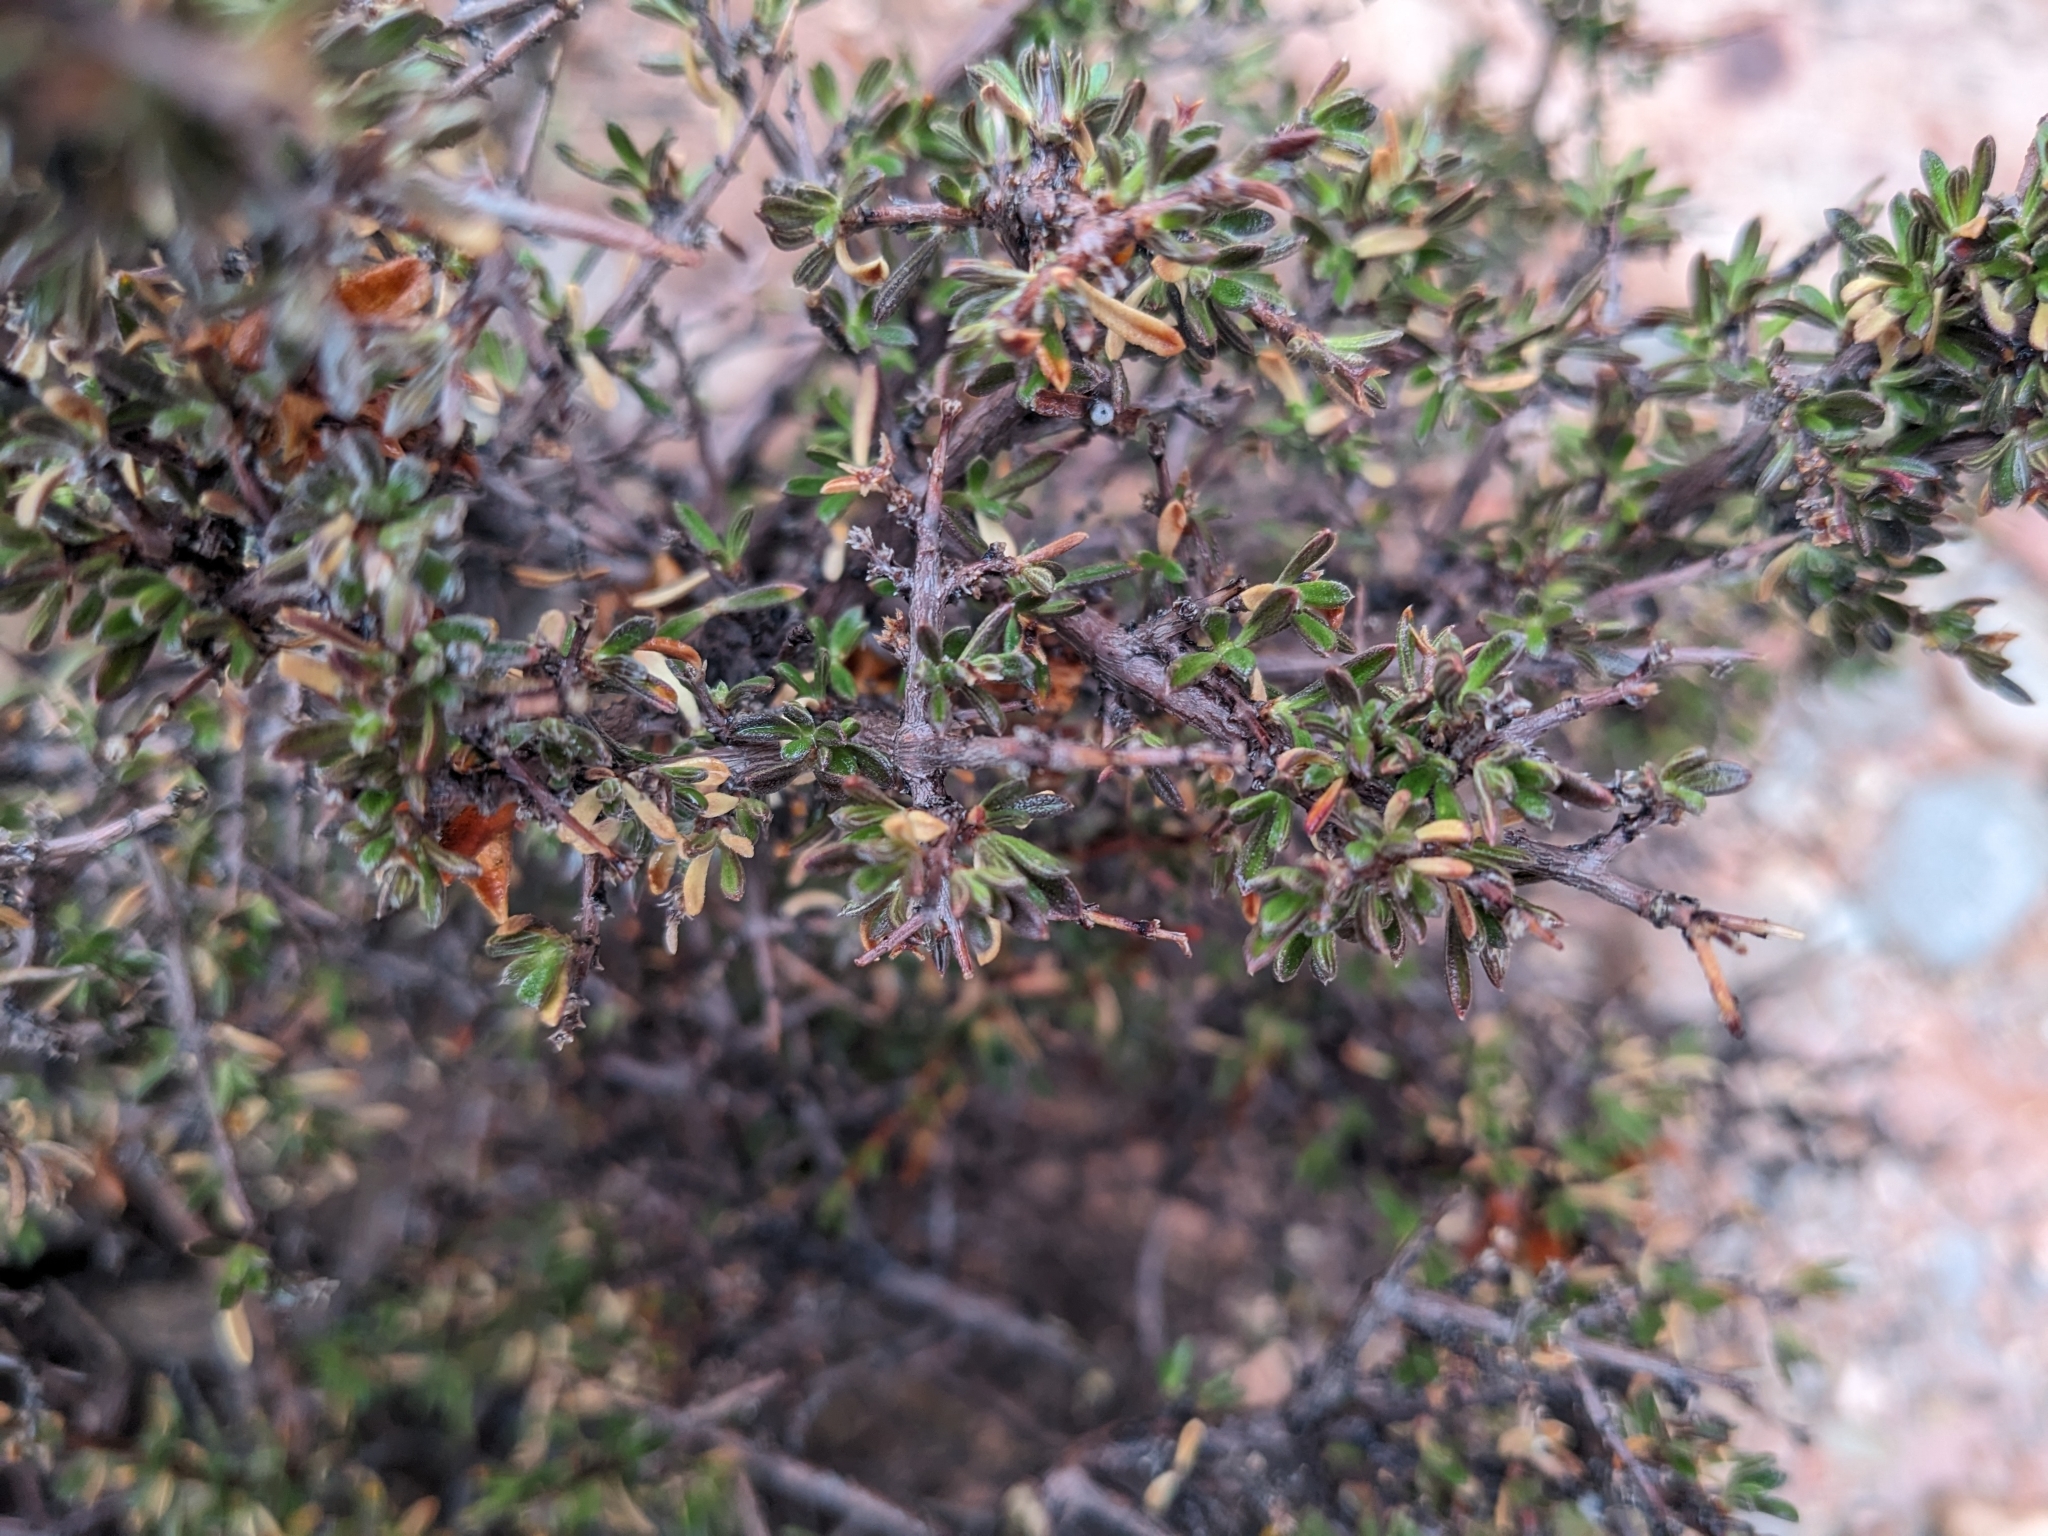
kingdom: Plantae
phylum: Tracheophyta
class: Magnoliopsida
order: Rosales
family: Rosaceae
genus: Coleogyne
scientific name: Coleogyne ramosissima
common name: Blackbrush
